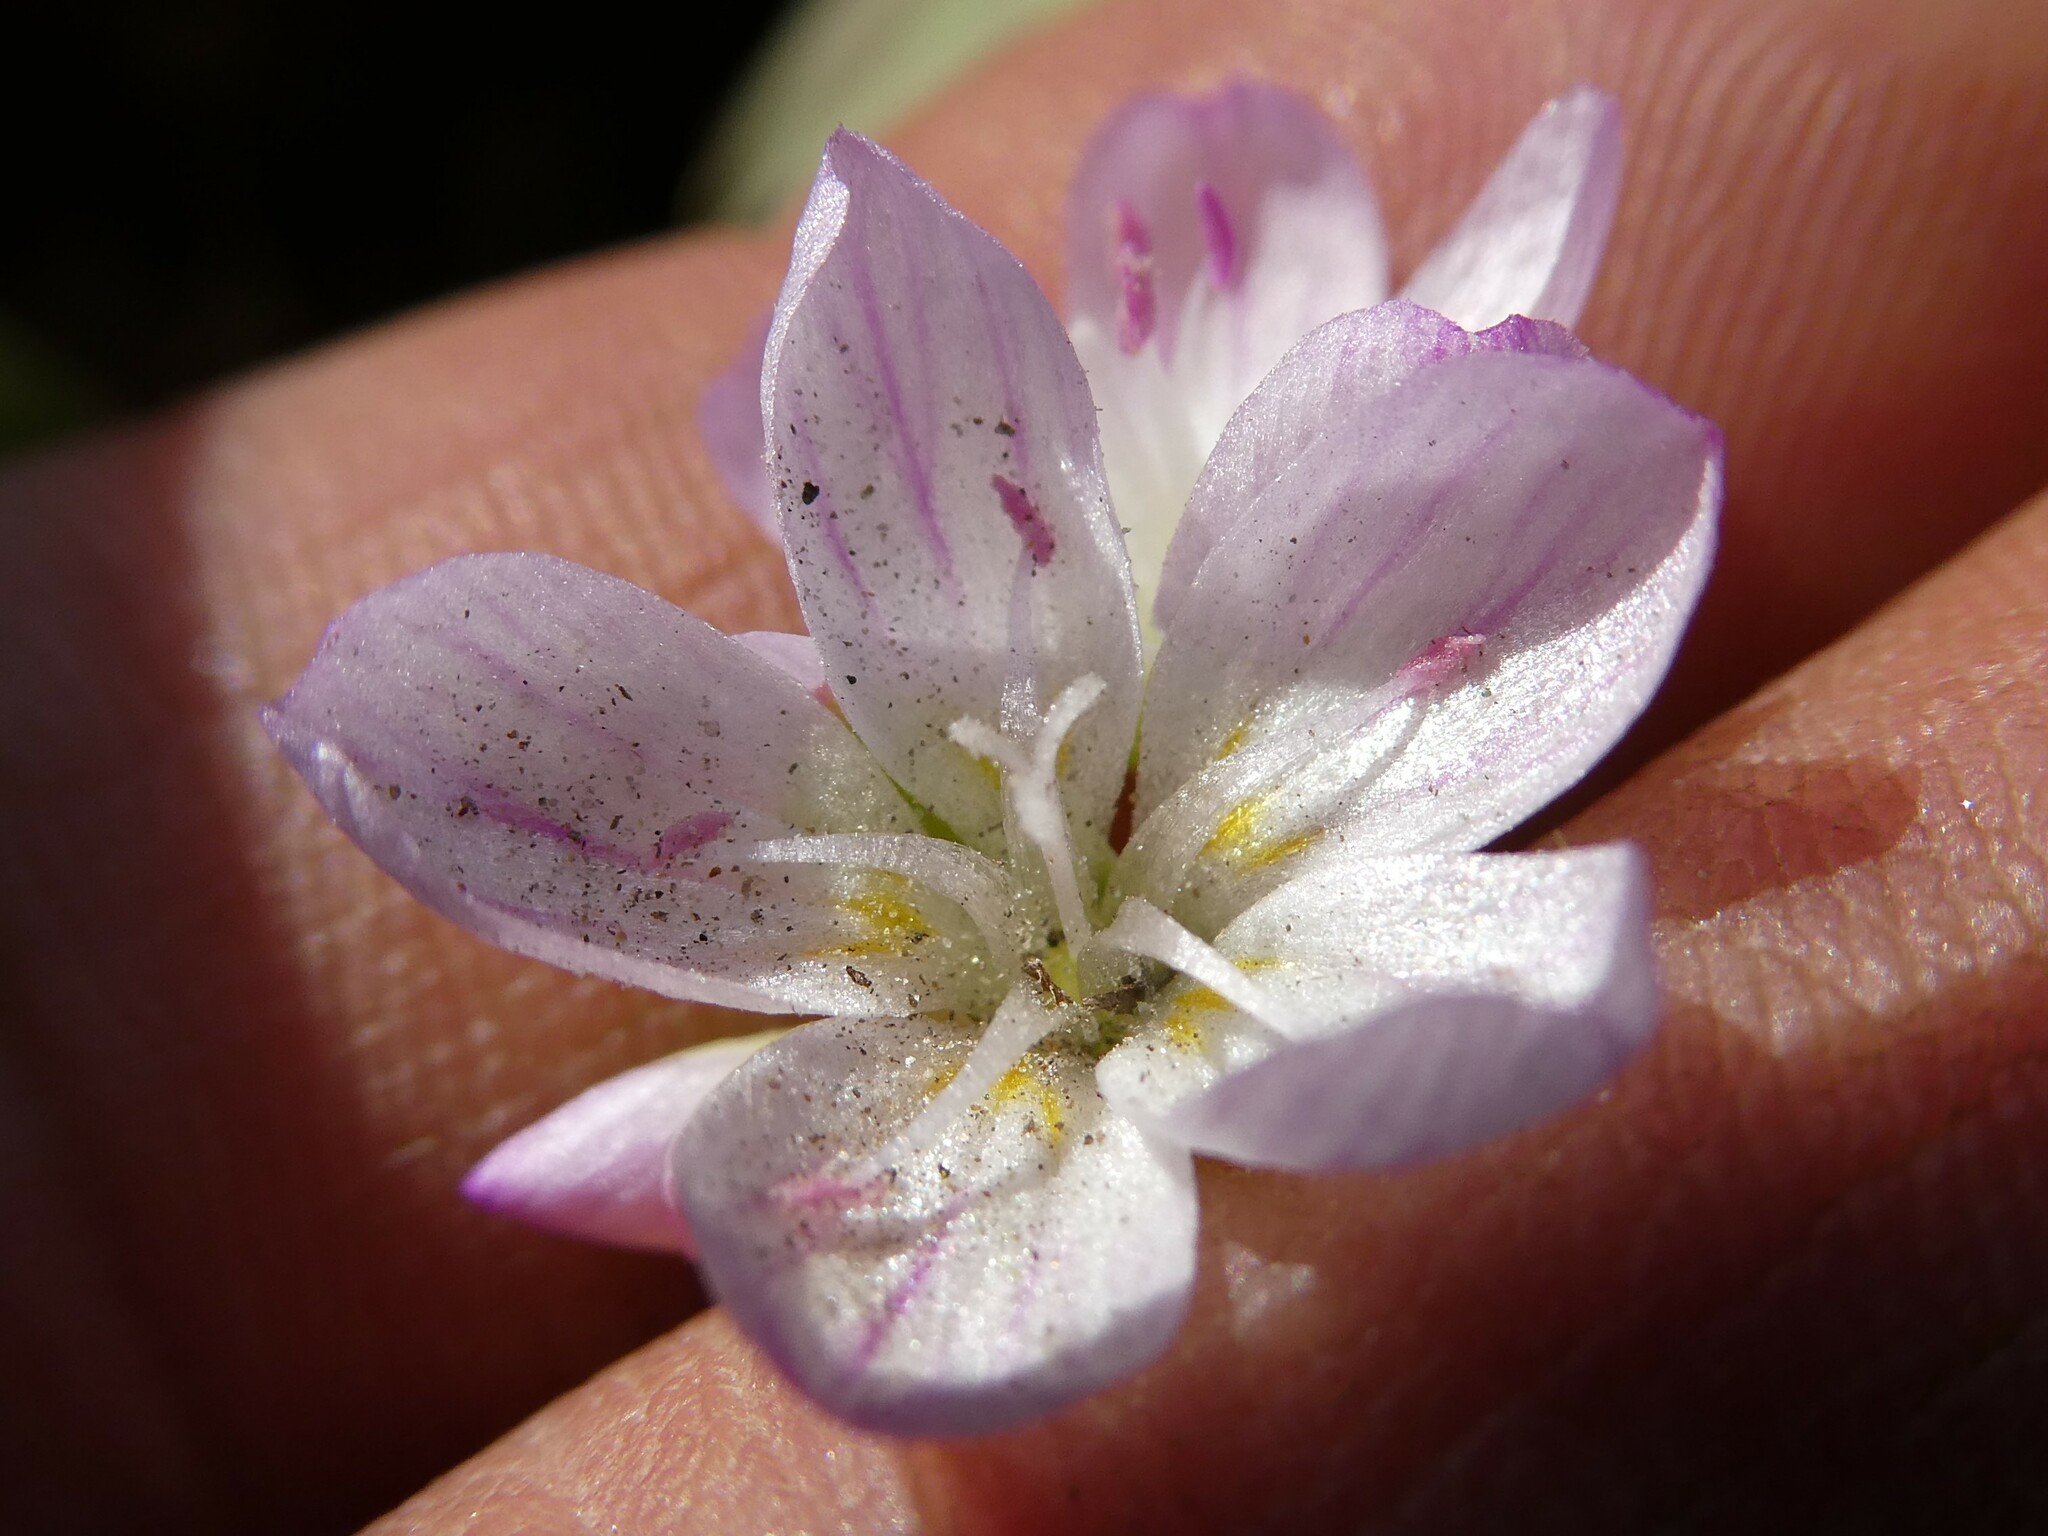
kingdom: Plantae
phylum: Tracheophyta
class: Magnoliopsida
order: Caryophyllales
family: Montiaceae
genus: Claytonia
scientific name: Claytonia caroliniana
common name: Carolina spring beauty
